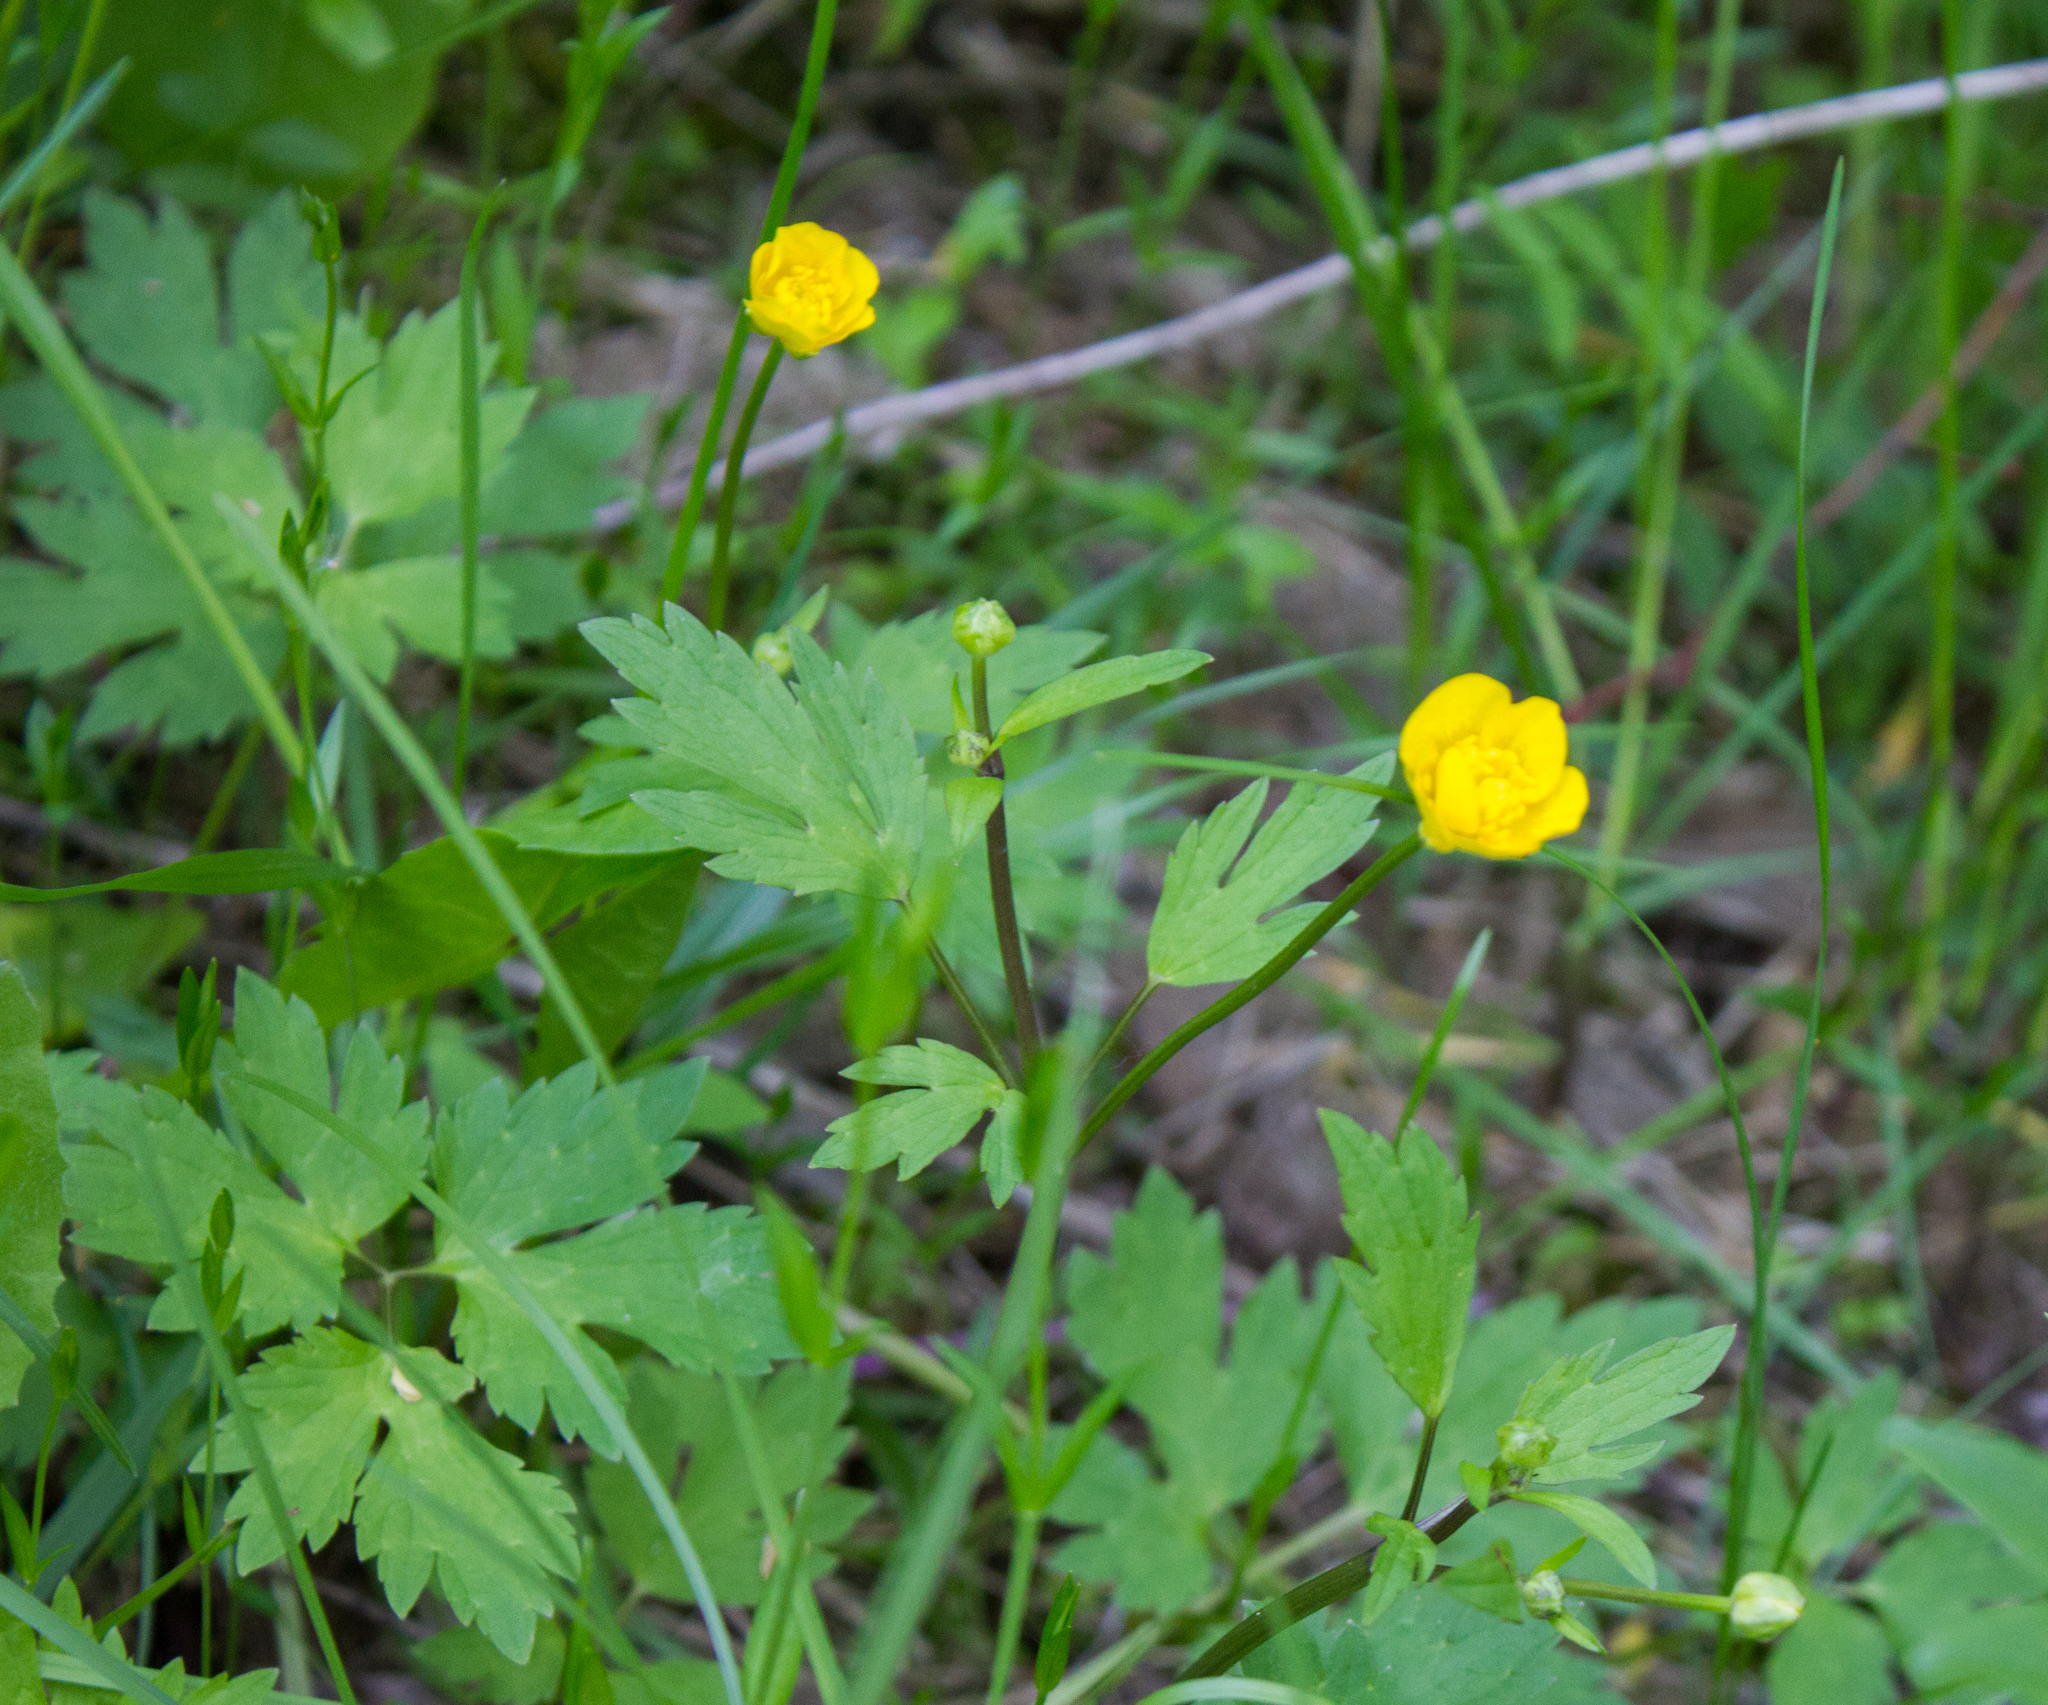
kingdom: Plantae
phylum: Tracheophyta
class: Magnoliopsida
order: Ranunculales
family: Ranunculaceae
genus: Ranunculus
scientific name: Ranunculus repens
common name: Creeping buttercup
